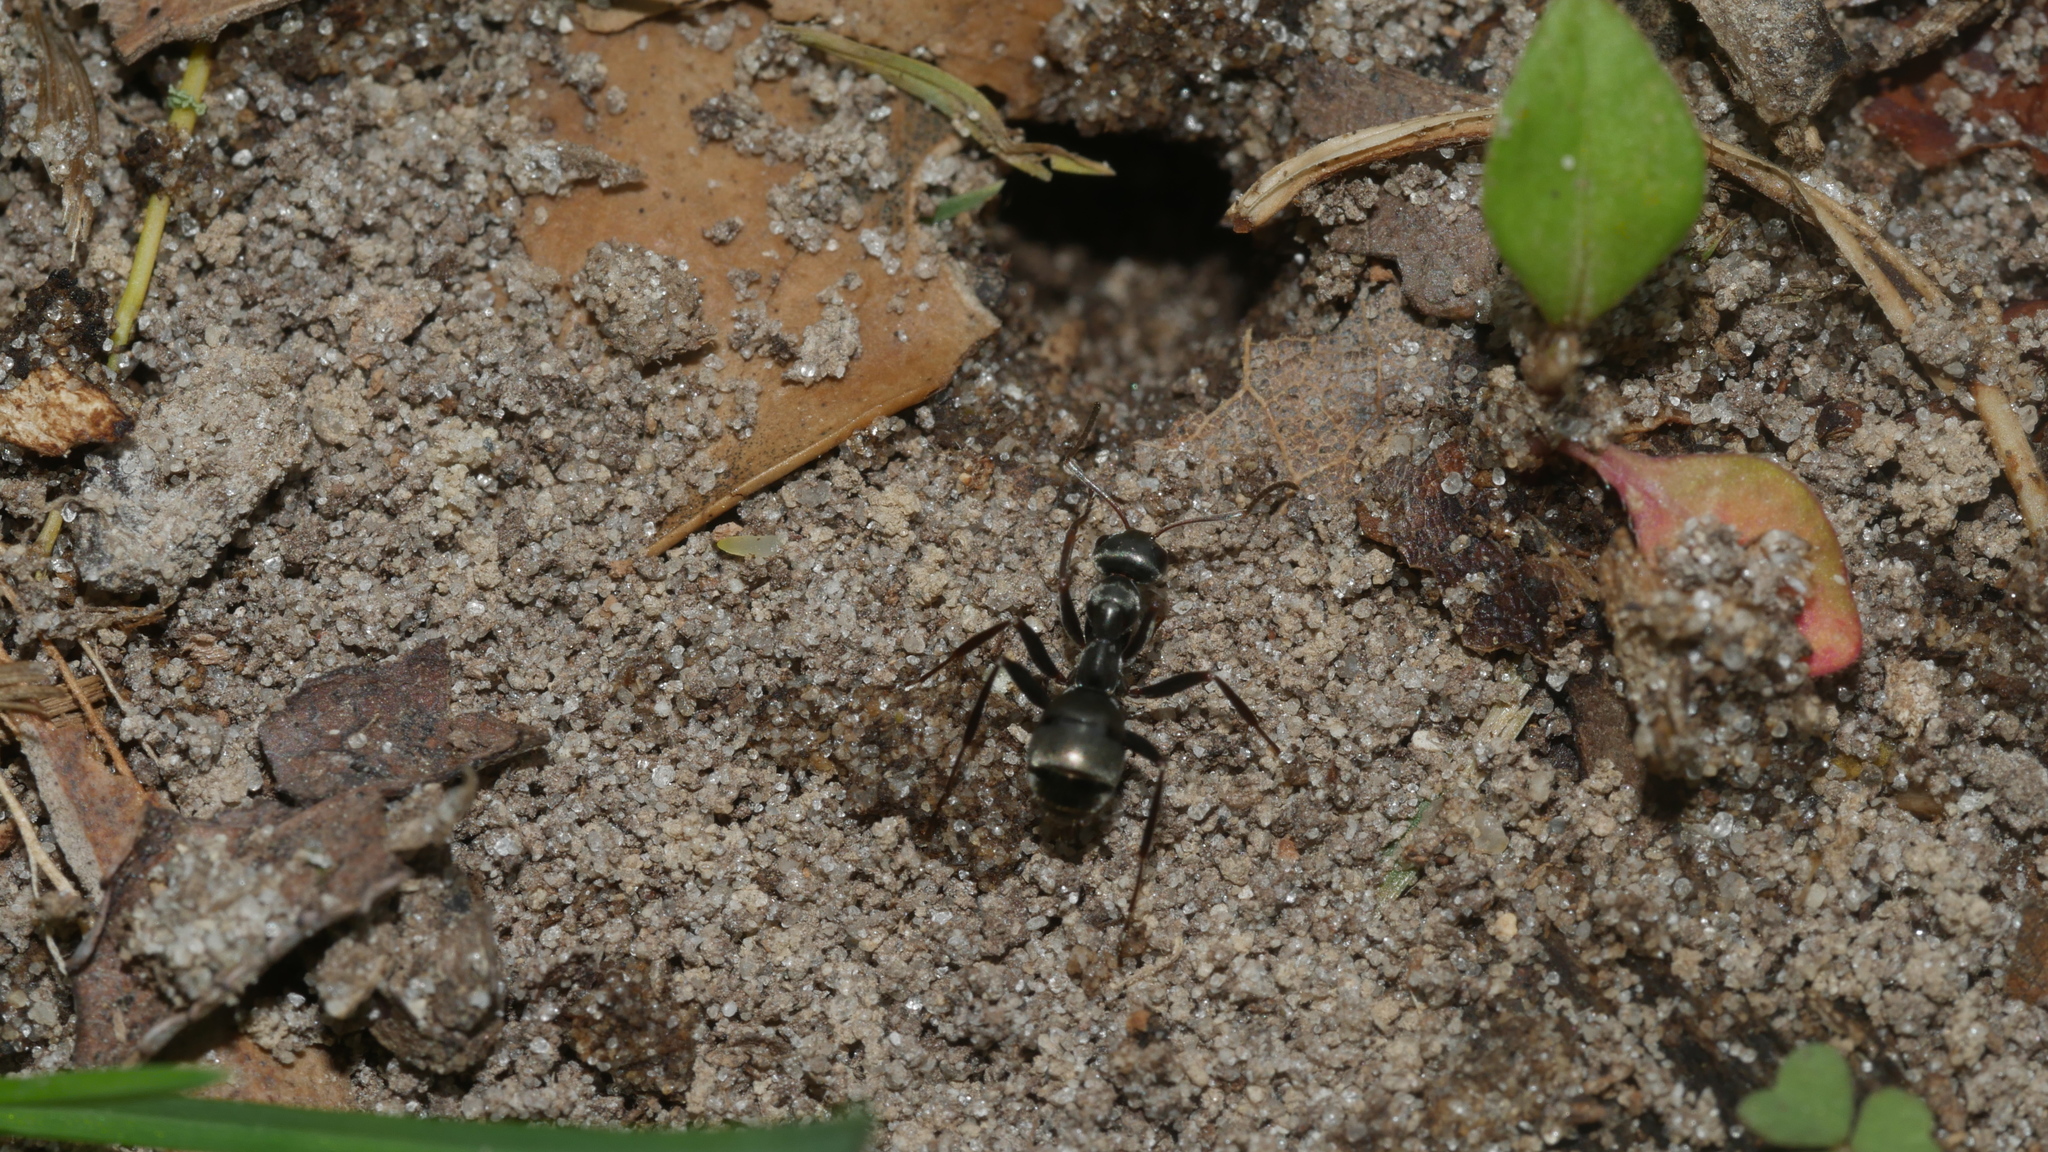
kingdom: Animalia
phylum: Arthropoda
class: Insecta
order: Hymenoptera
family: Formicidae
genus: Formica
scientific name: Formica subsericea
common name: Silky field ant
